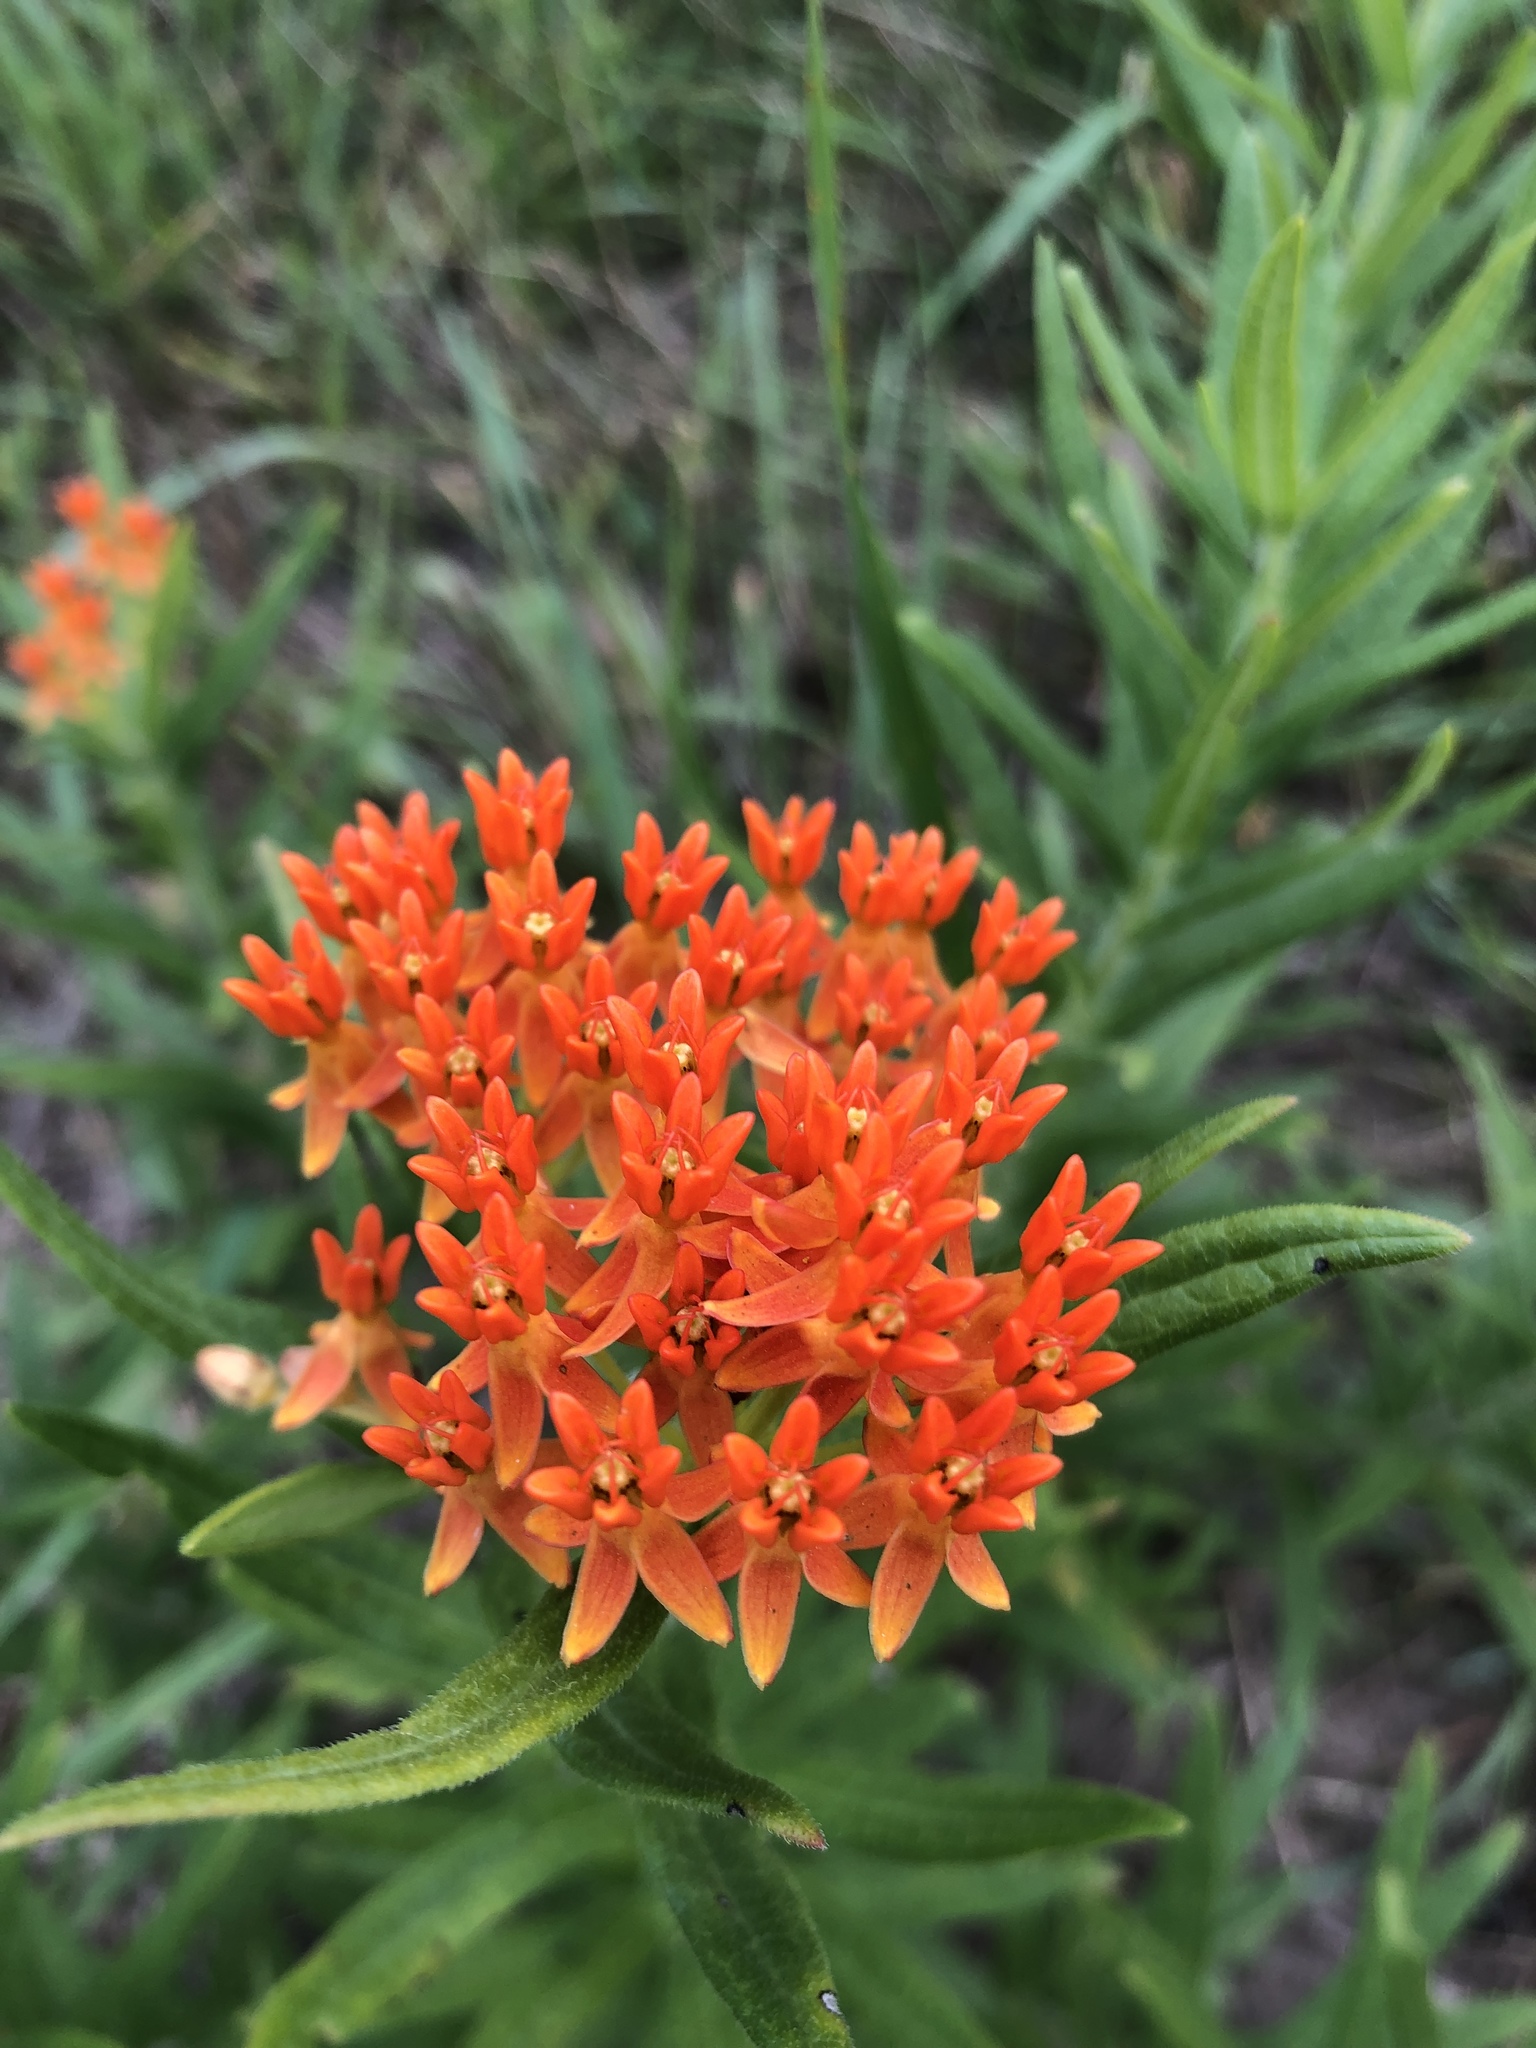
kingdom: Plantae
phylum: Tracheophyta
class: Magnoliopsida
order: Gentianales
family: Apocynaceae
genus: Asclepias
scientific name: Asclepias tuberosa
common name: Butterfly milkweed
